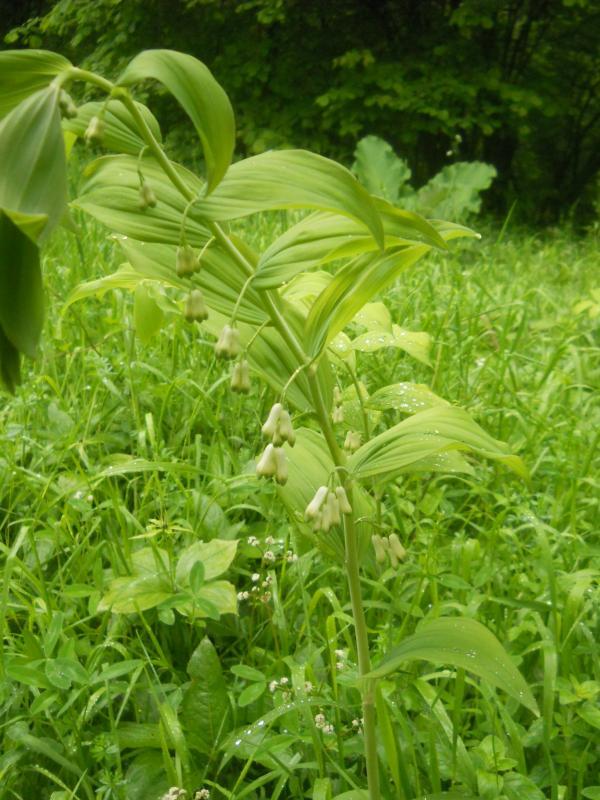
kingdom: Plantae
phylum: Tracheophyta
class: Liliopsida
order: Asparagales
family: Asparagaceae
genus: Polygonatum
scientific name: Polygonatum multiflorum
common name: Solomon's-seal
